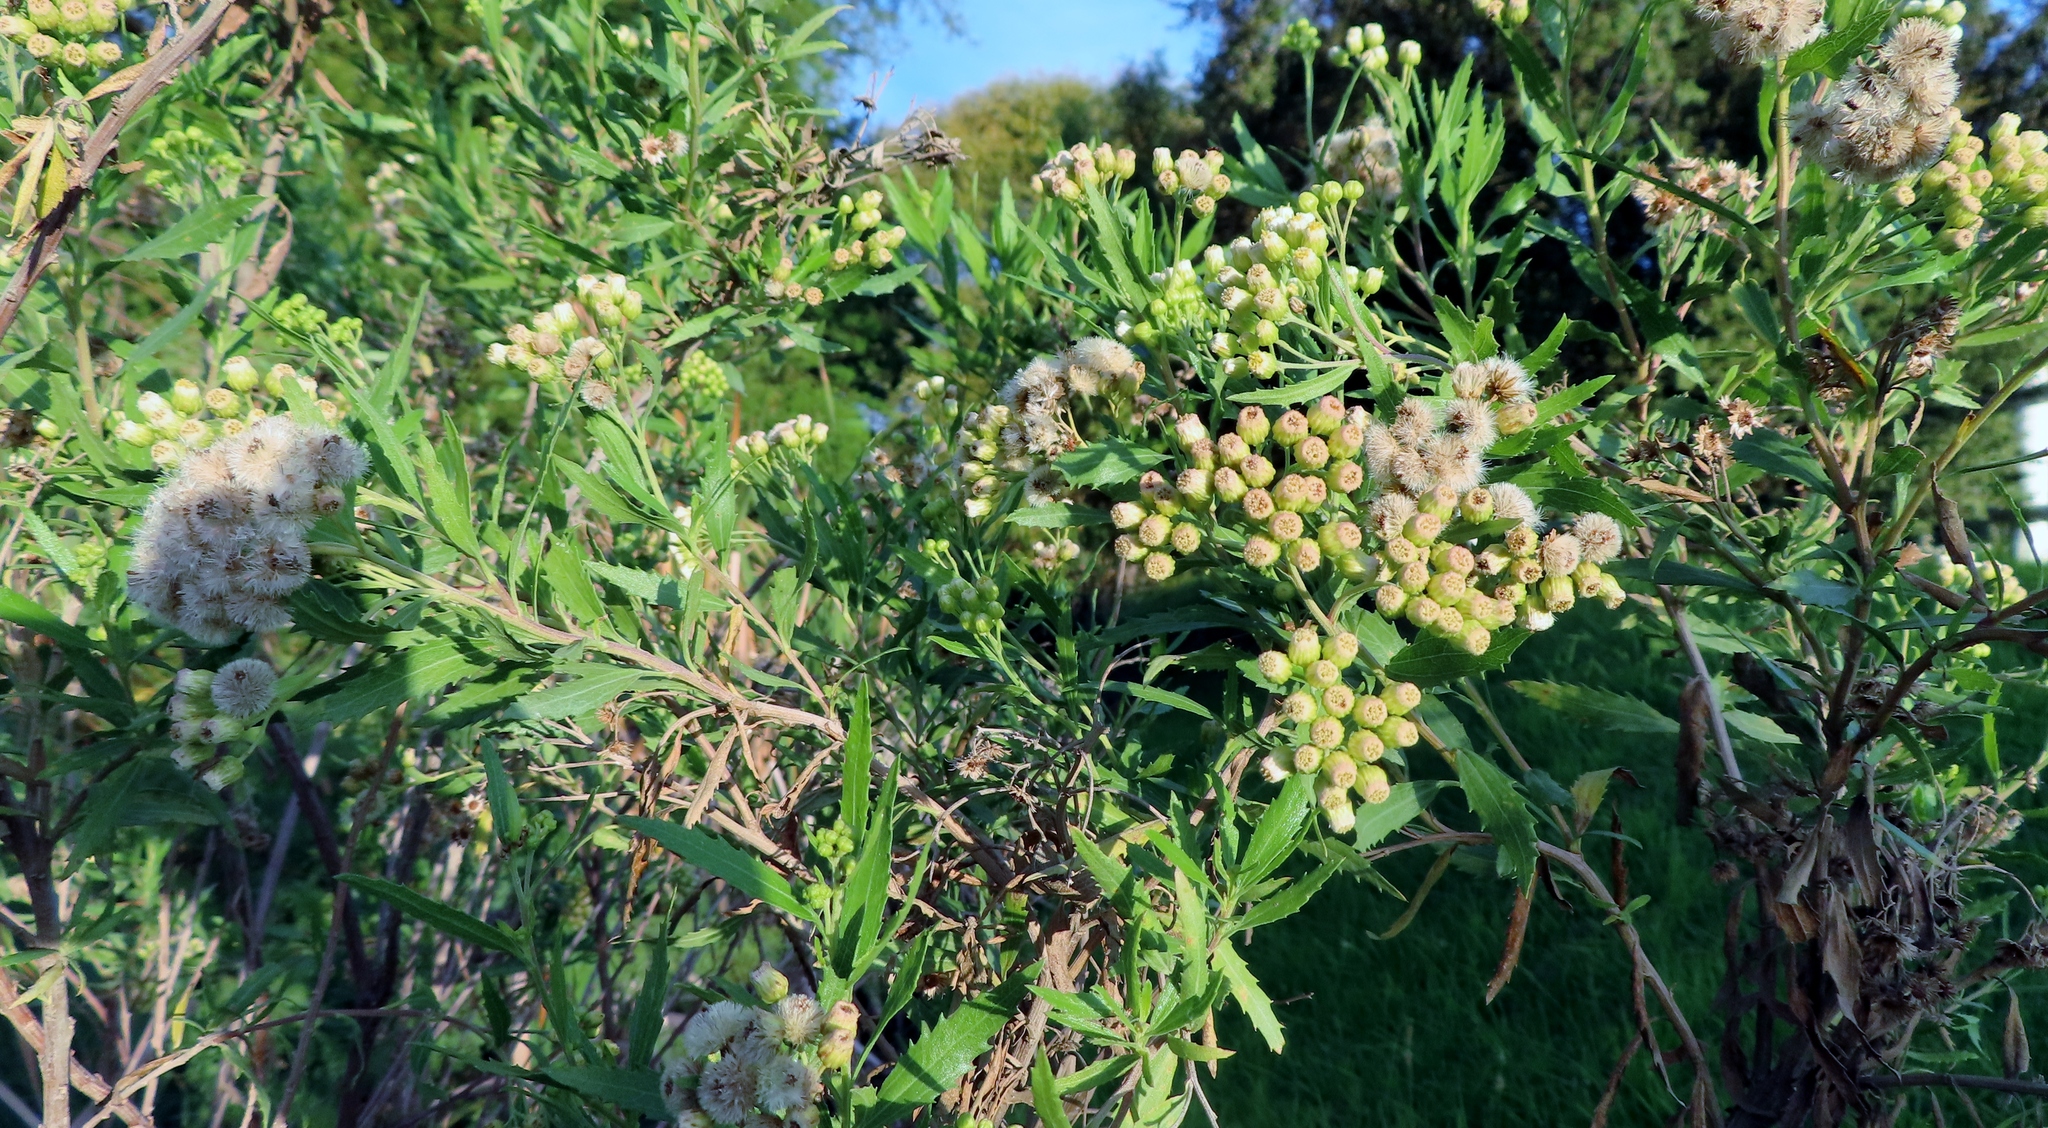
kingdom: Plantae
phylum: Tracheophyta
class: Magnoliopsida
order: Asterales
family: Asteraceae
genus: Nidorella
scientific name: Nidorella ivifolia
